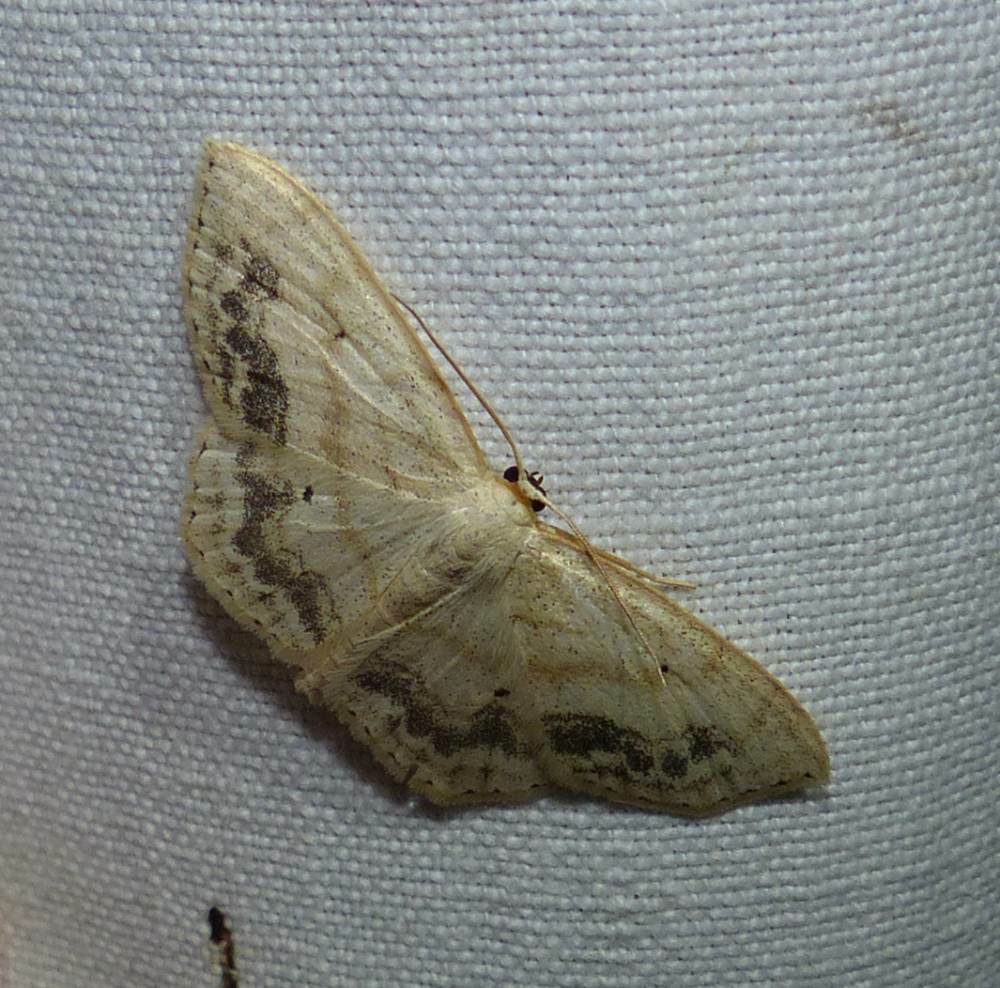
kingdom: Animalia
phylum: Arthropoda
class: Insecta
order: Lepidoptera
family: Geometridae
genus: Scopula
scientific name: Scopula limboundata
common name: Large lace border
